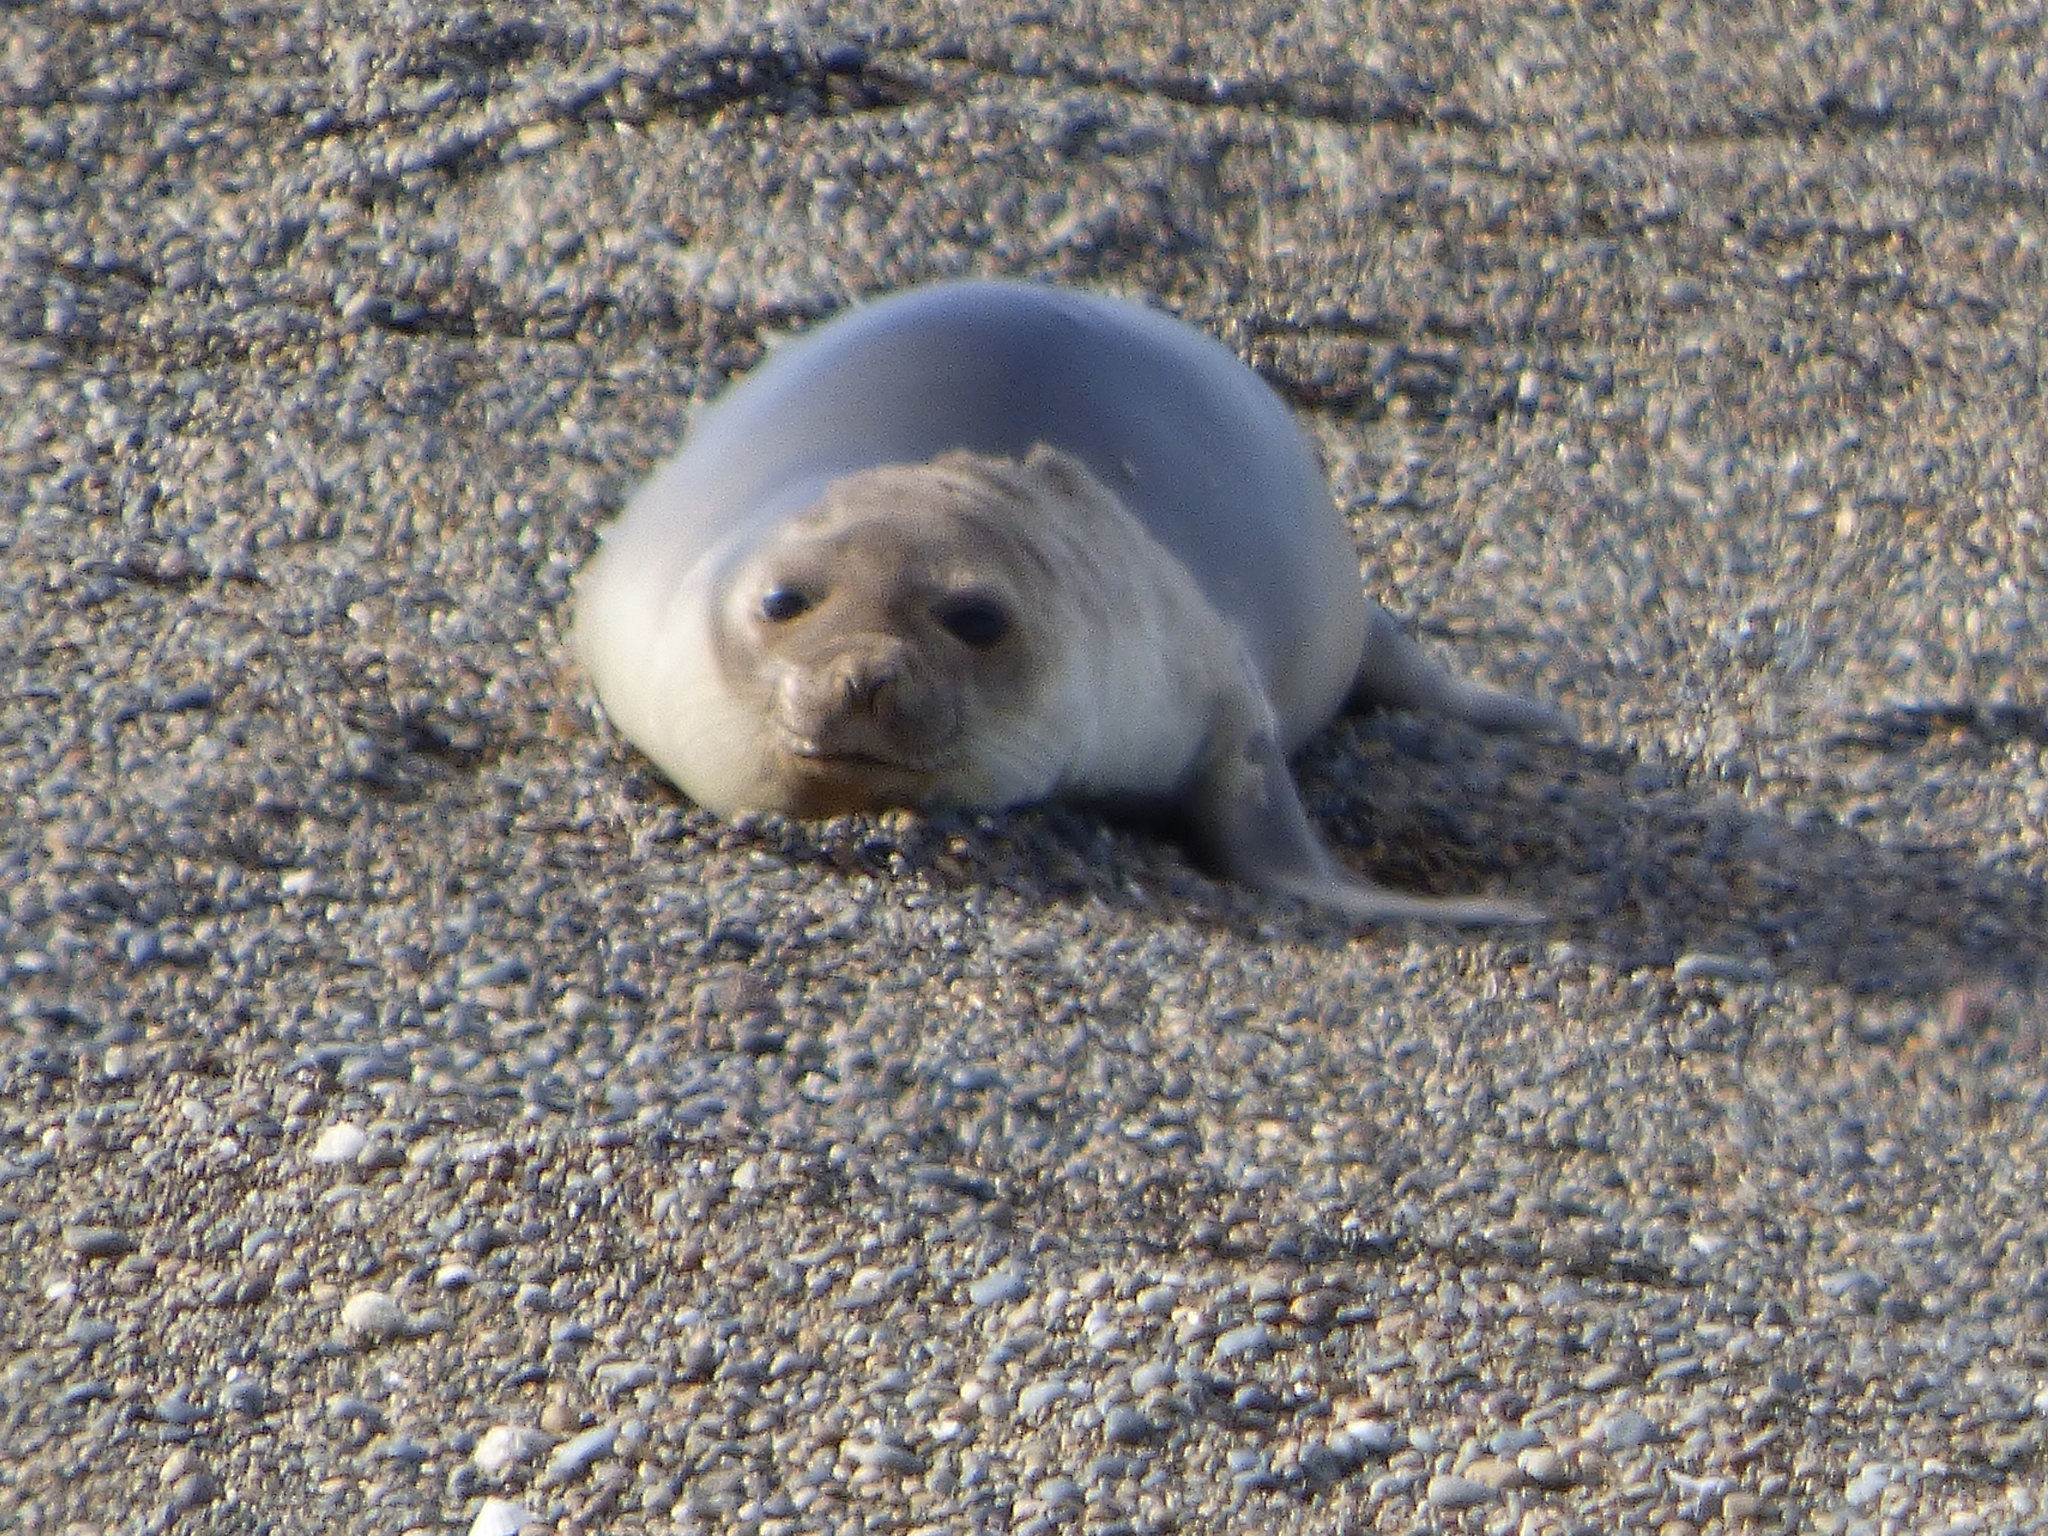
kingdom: Animalia
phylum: Chordata
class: Mammalia
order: Carnivora
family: Phocidae
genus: Mirounga
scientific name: Mirounga leonina
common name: Southern elephant seal
